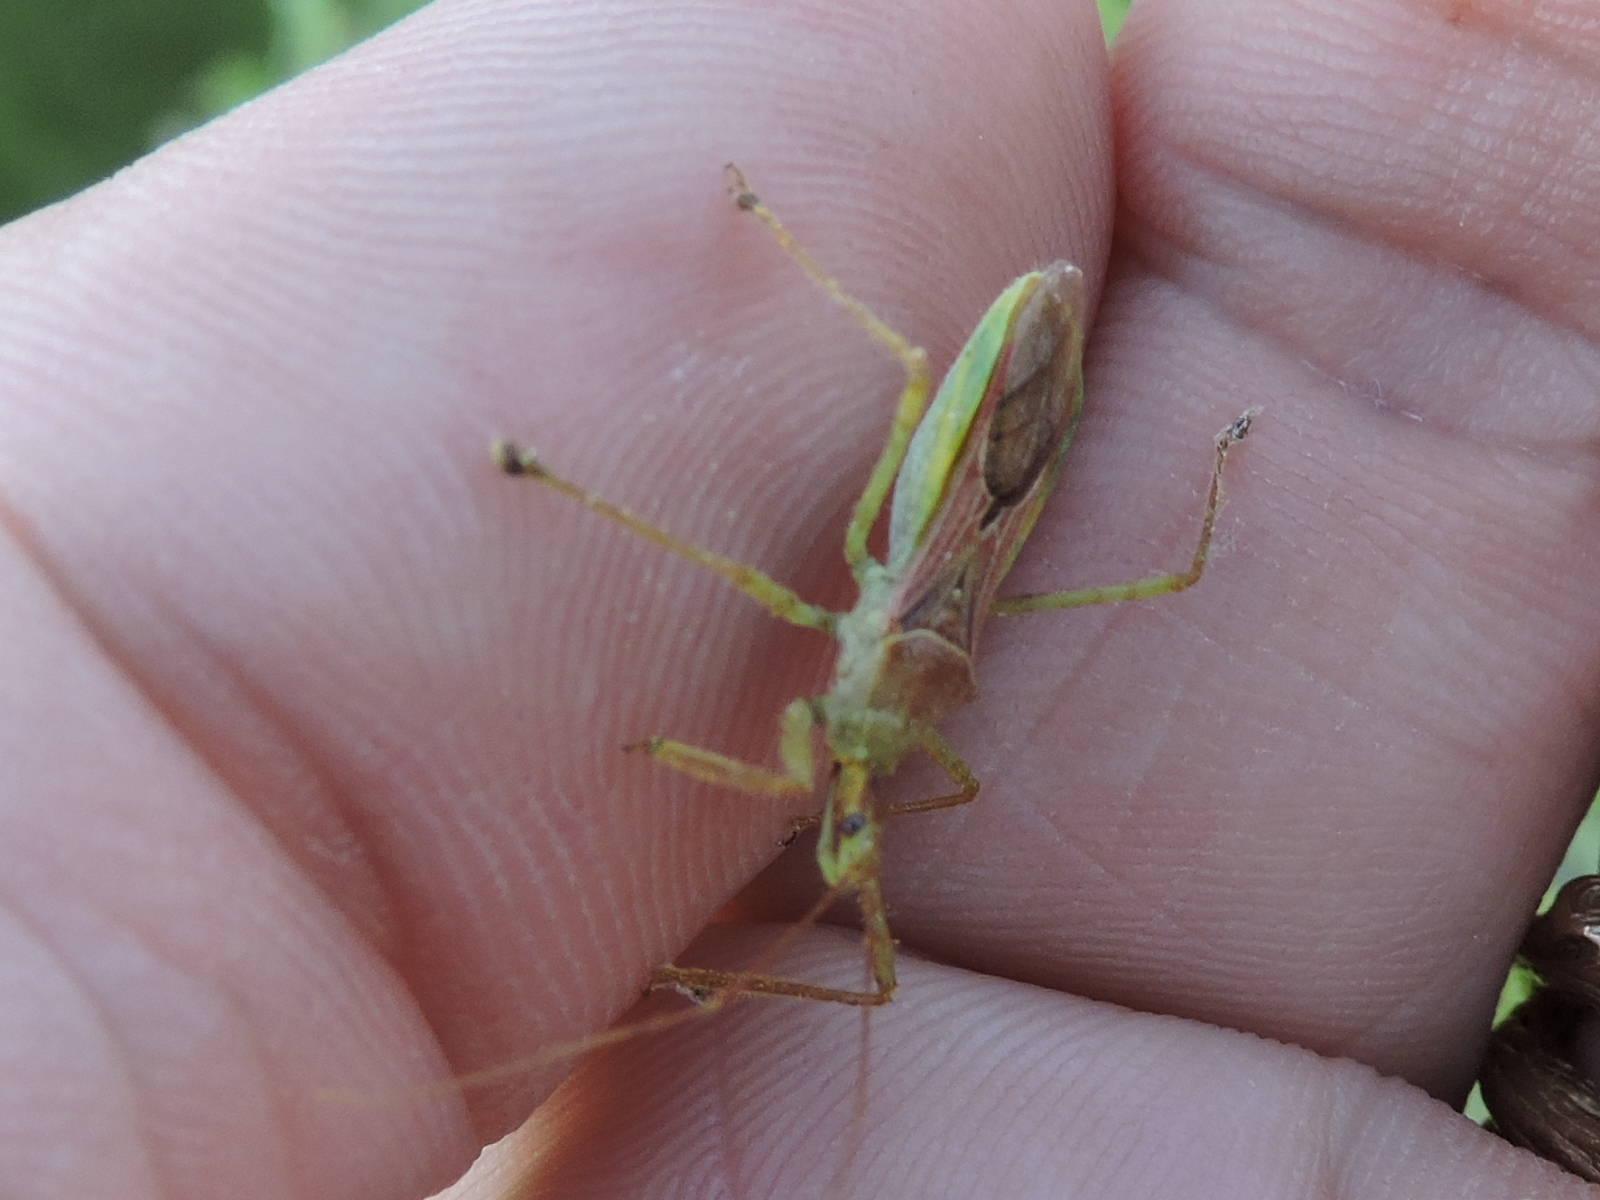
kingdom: Animalia
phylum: Arthropoda
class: Insecta
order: Hemiptera
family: Reduviidae
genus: Zelus
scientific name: Zelus renardii
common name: Assassin bug
